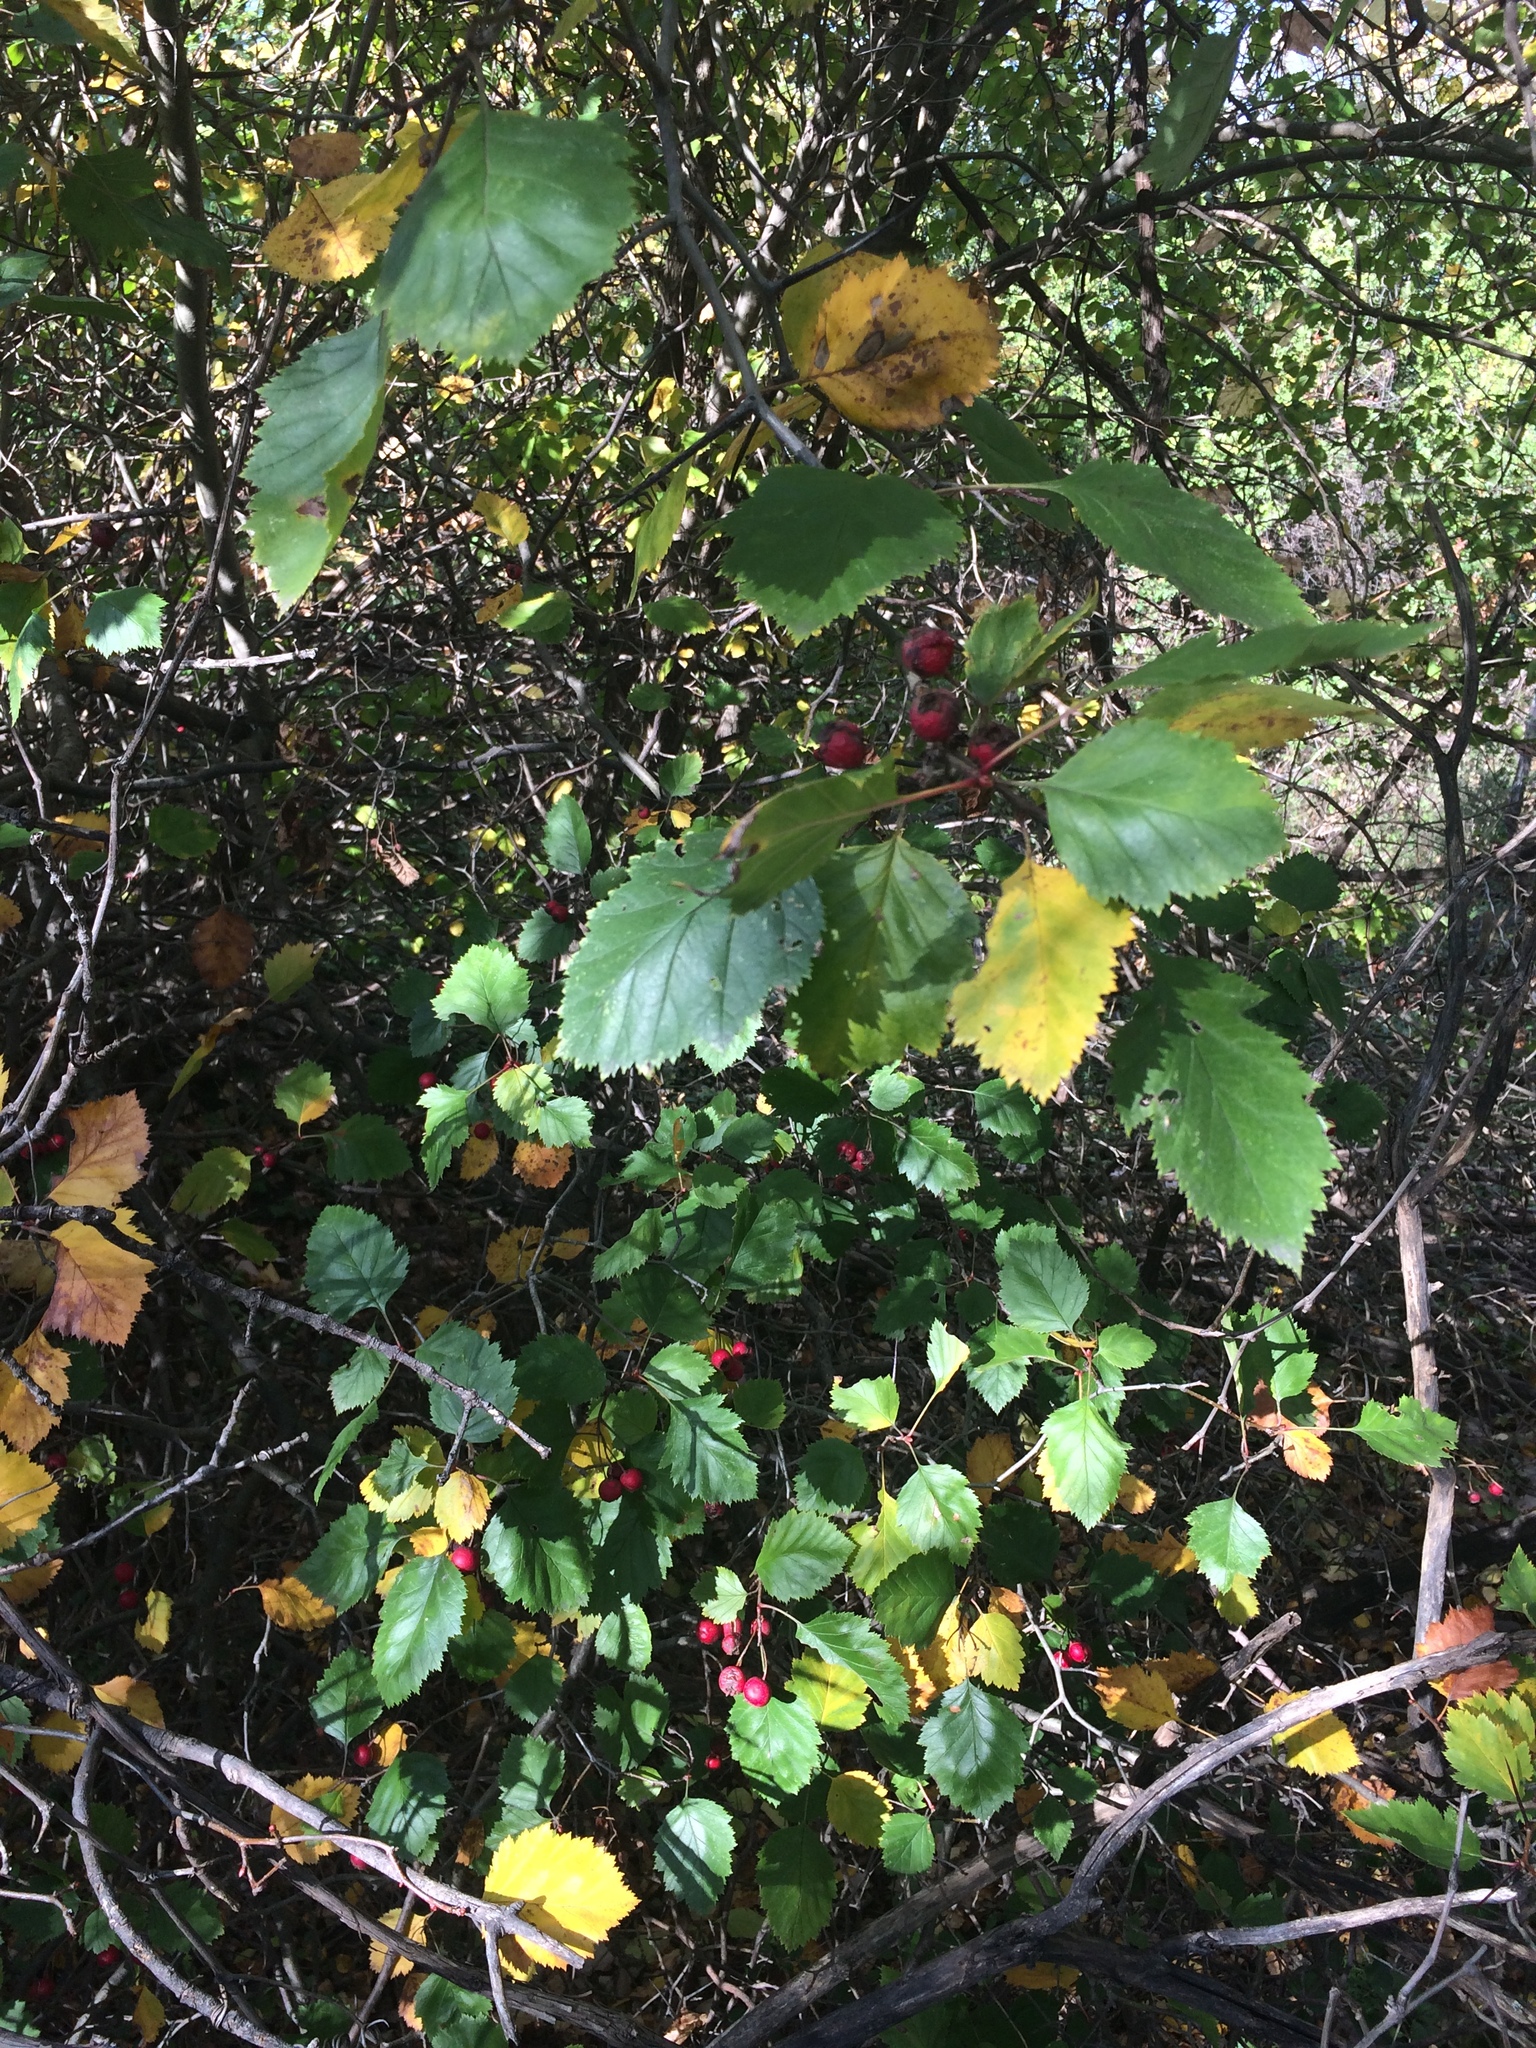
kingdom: Plantae
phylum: Tracheophyta
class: Magnoliopsida
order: Rosales
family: Rosaceae
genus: Crataegus
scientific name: Crataegus submollis
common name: Hairy cockspurthorn
